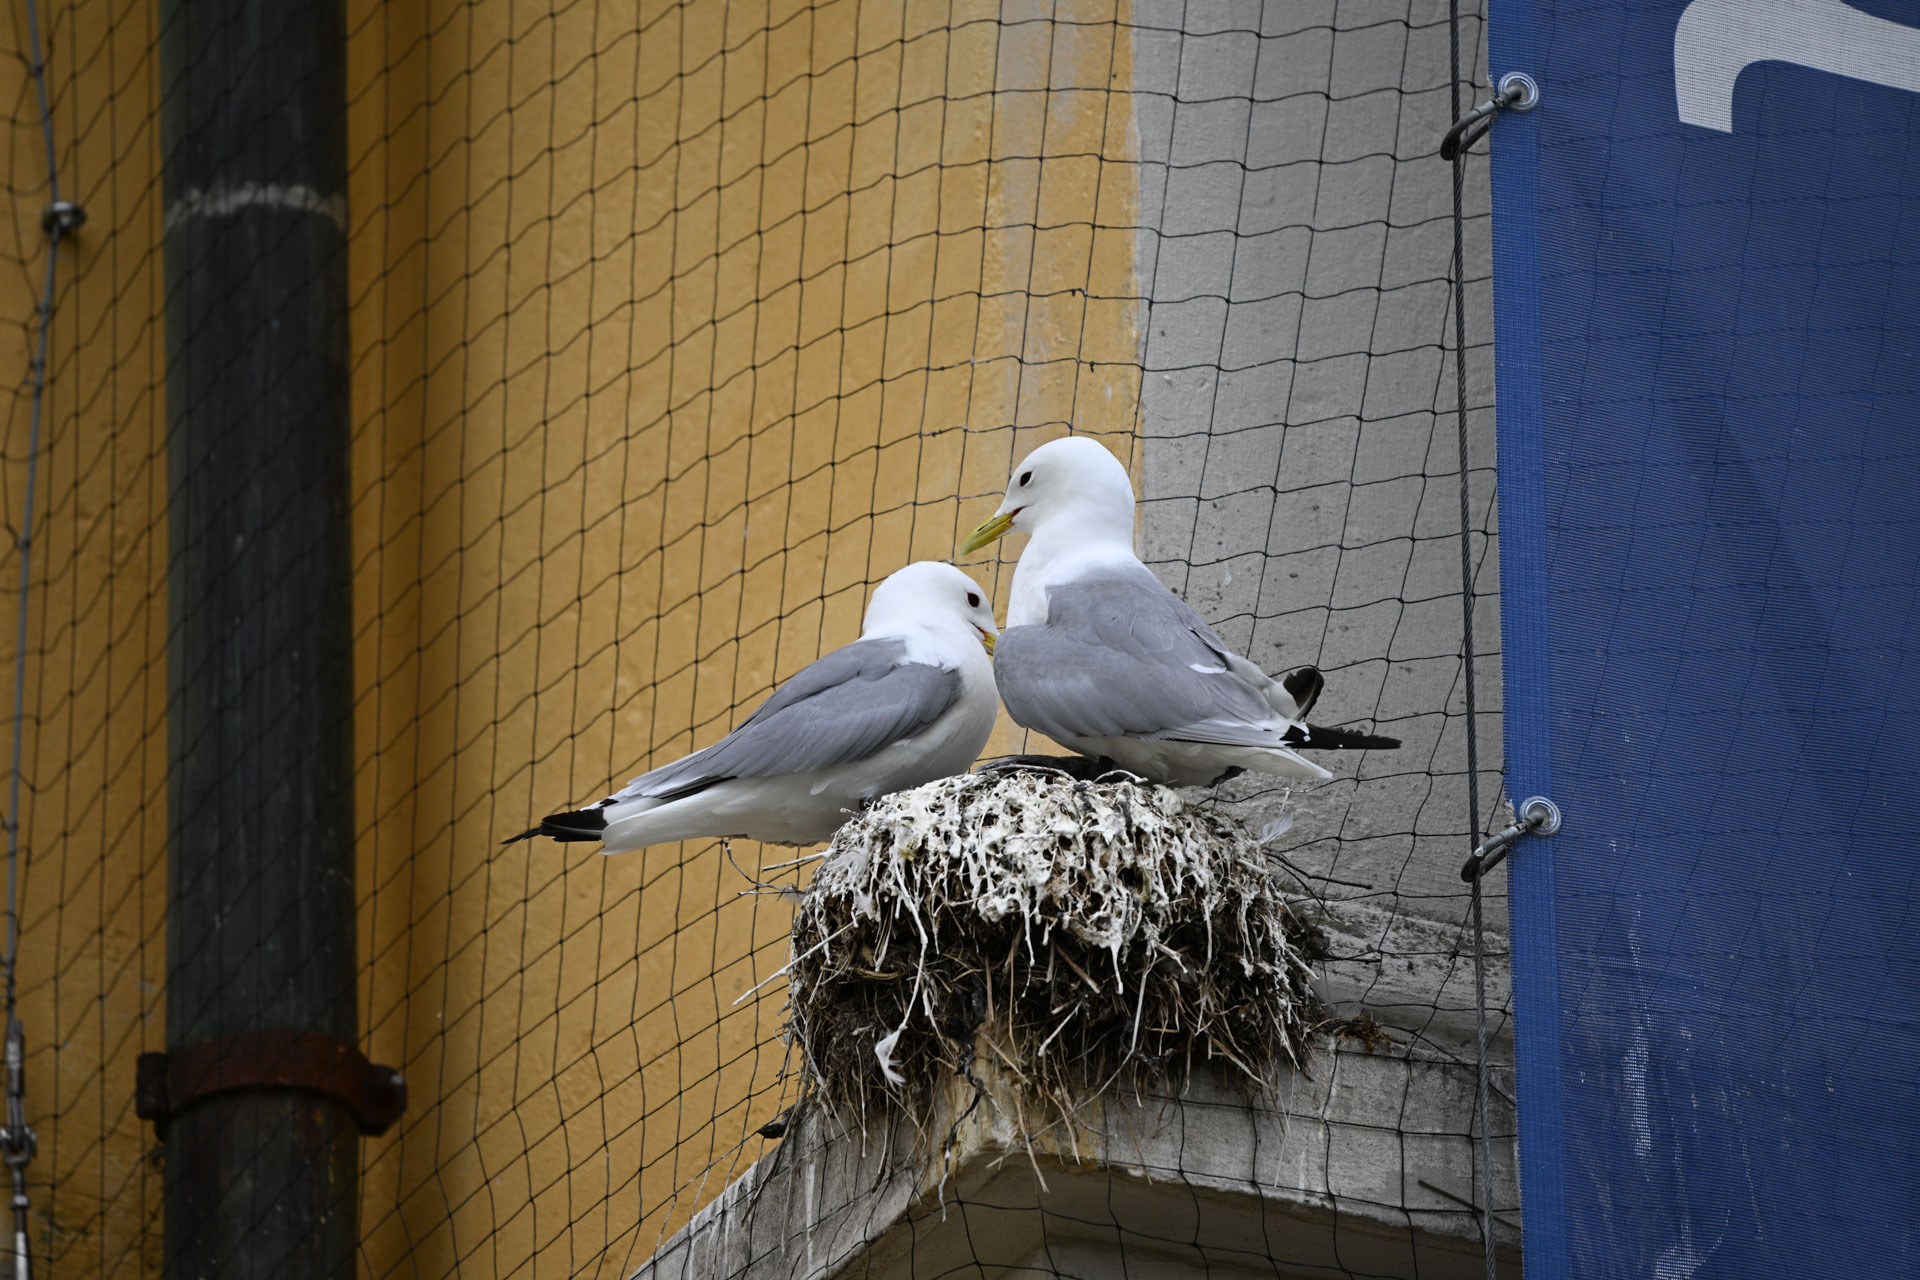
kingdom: Animalia
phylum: Chordata
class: Aves
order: Charadriiformes
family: Laridae
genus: Rissa
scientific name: Rissa tridactyla
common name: Black-legged kittiwake
